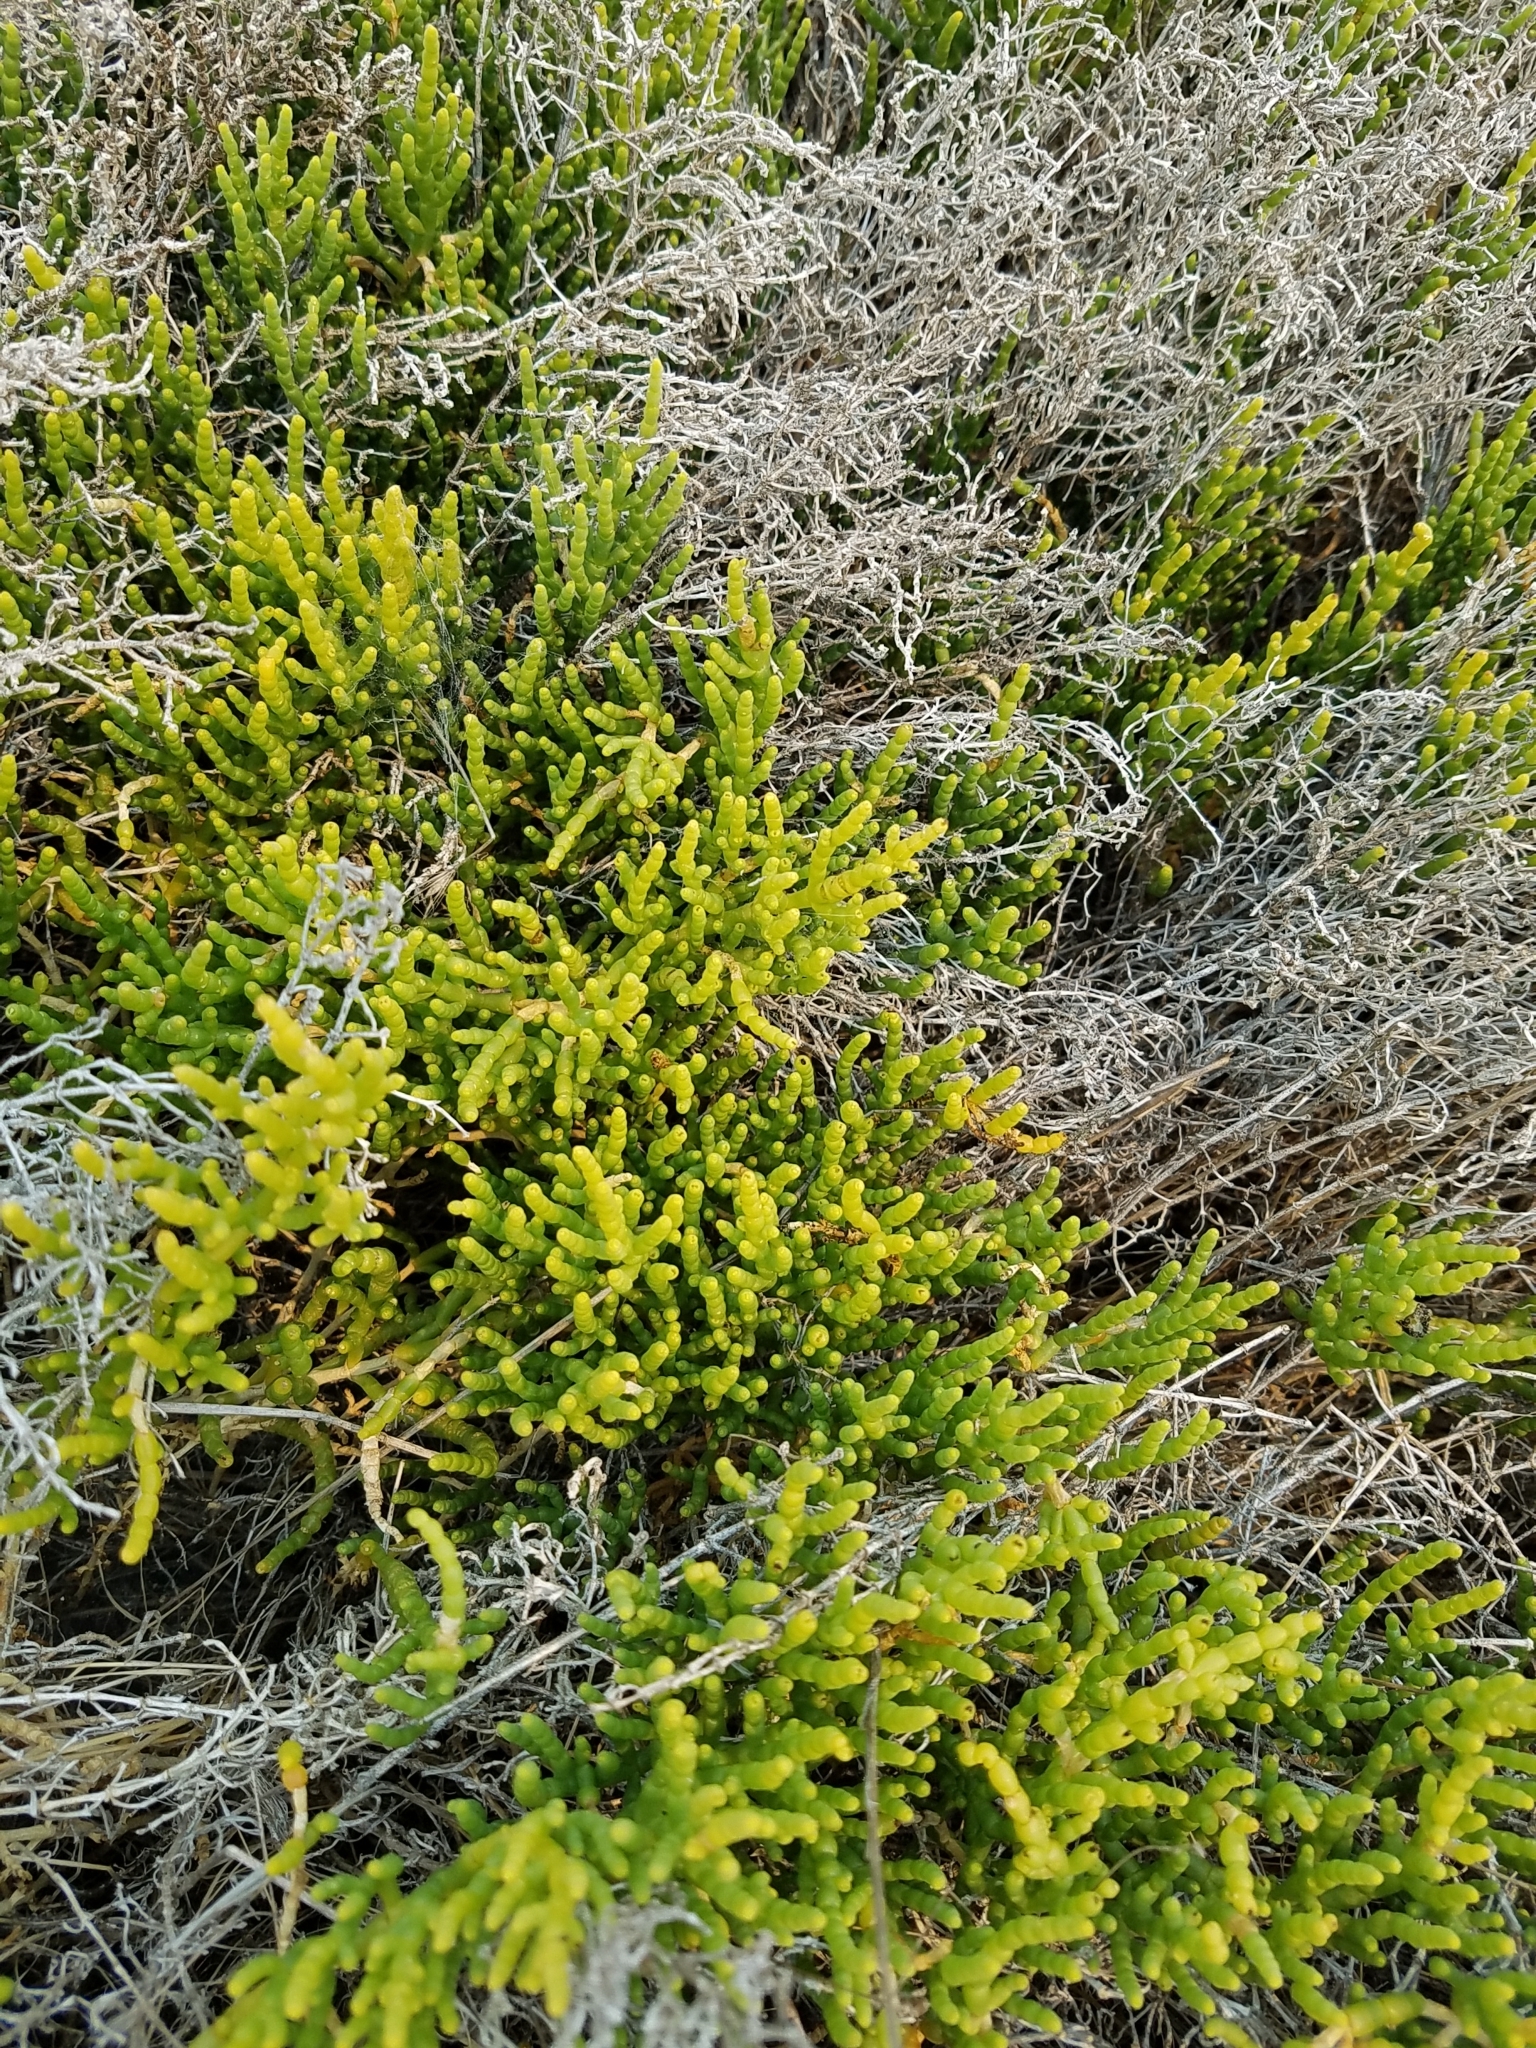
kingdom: Plantae
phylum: Tracheophyta
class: Magnoliopsida
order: Caryophyllales
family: Amaranthaceae
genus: Arthroceras
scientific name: Arthroceras subterminale
